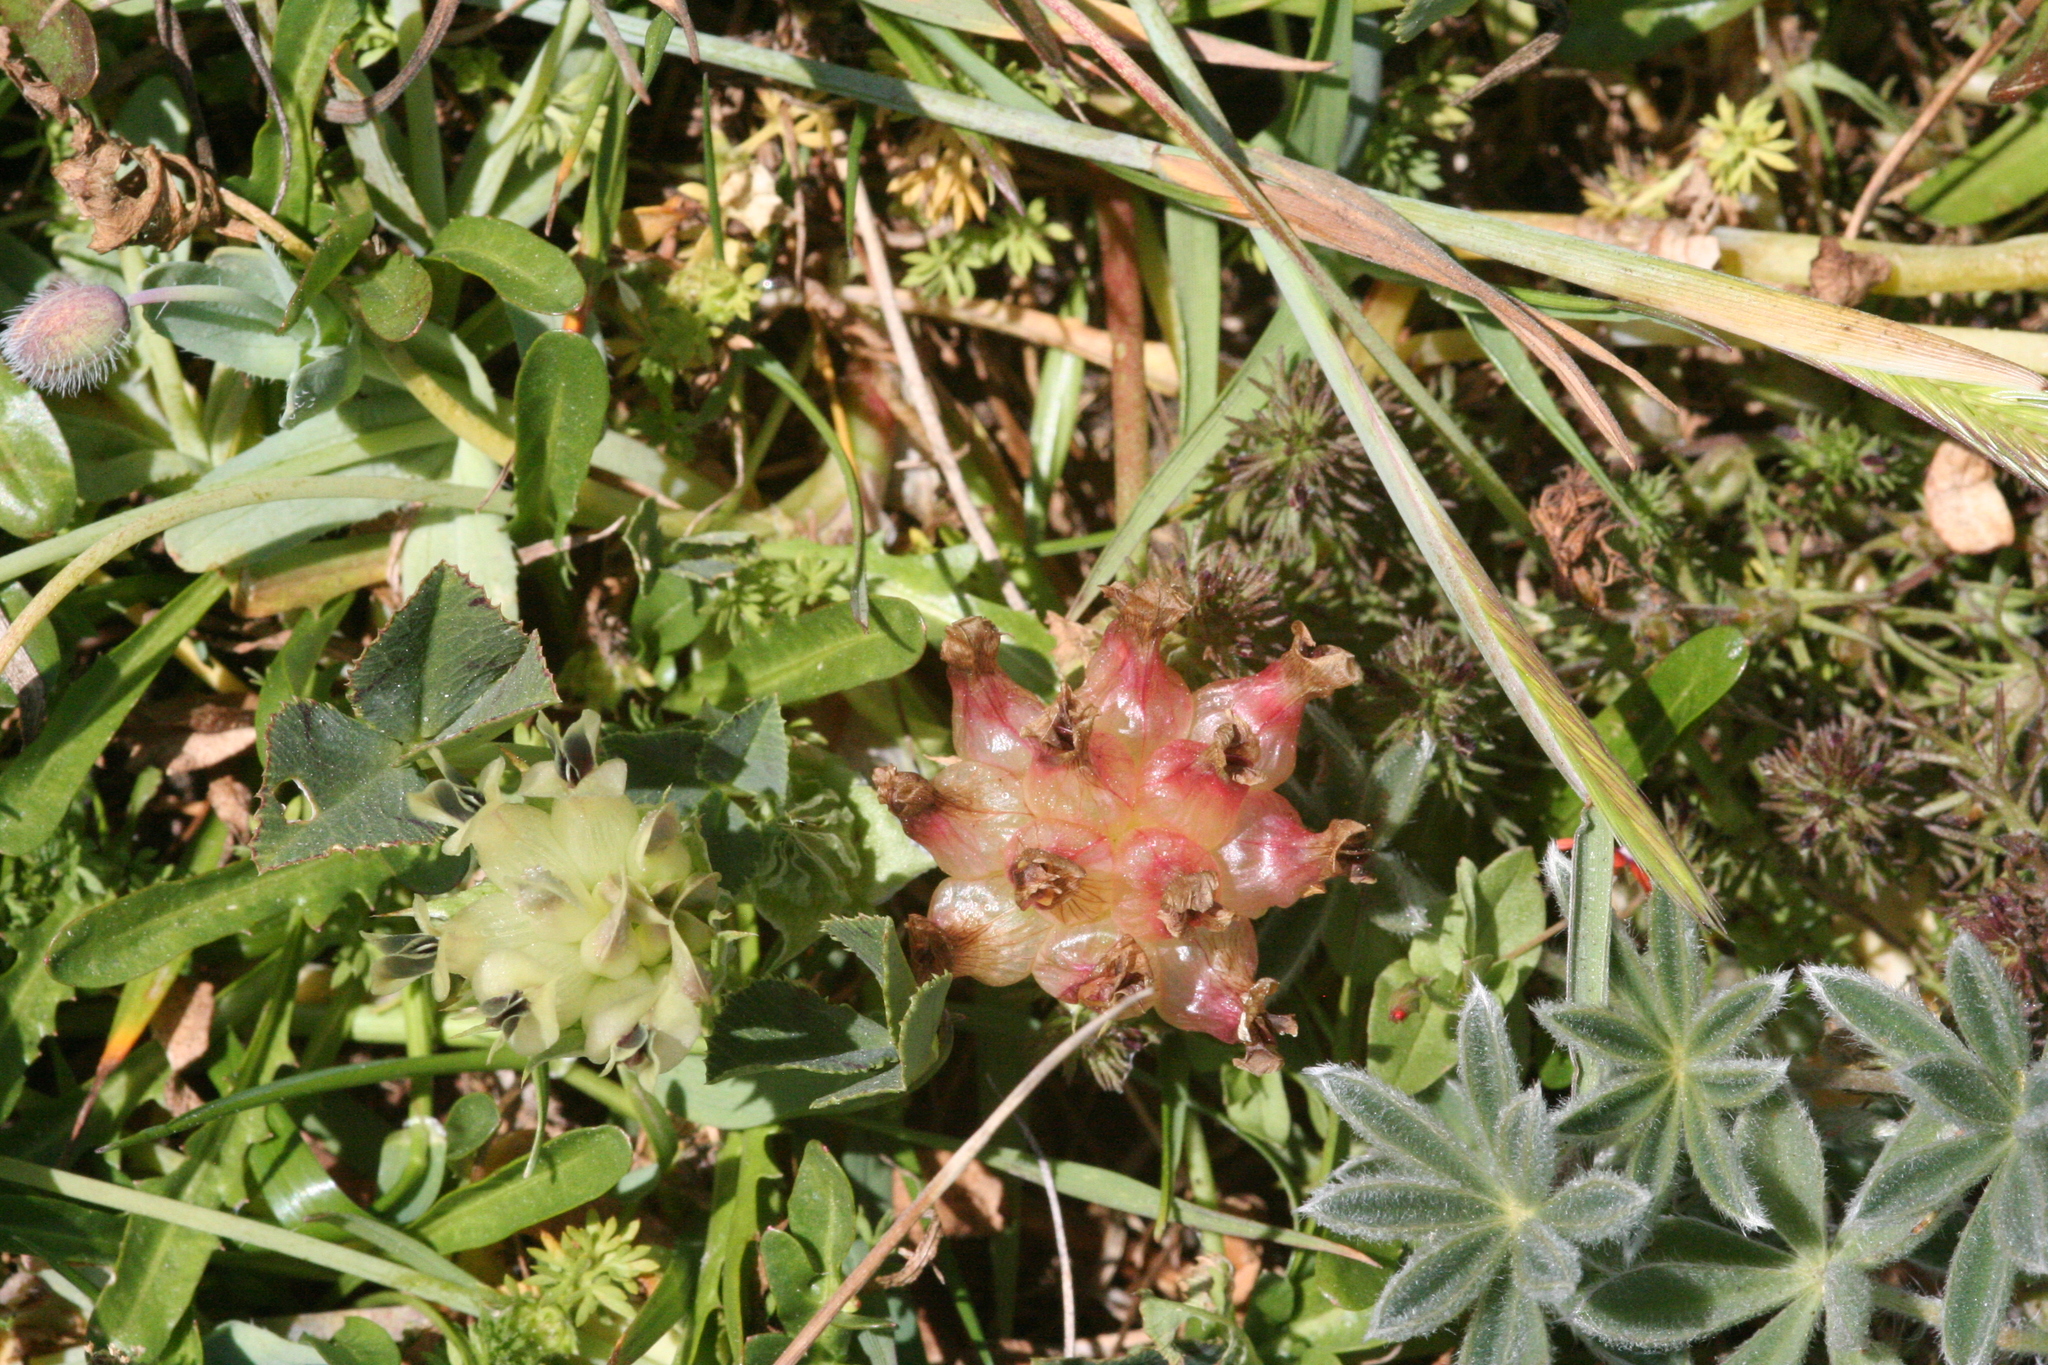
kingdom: Plantae
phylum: Tracheophyta
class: Magnoliopsida
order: Fabales
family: Fabaceae
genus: Trifolium
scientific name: Trifolium fucatum
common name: Puff clover
